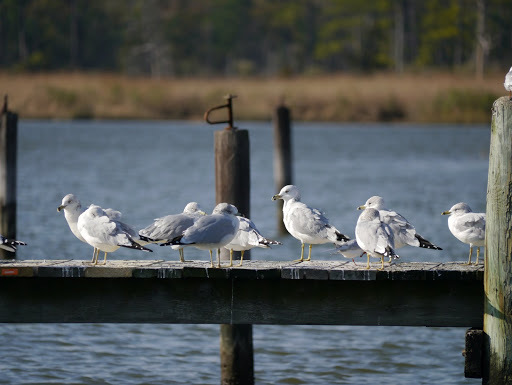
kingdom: Animalia
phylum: Chordata
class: Aves
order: Charadriiformes
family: Laridae
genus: Larus
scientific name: Larus delawarensis
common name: Ring-billed gull
